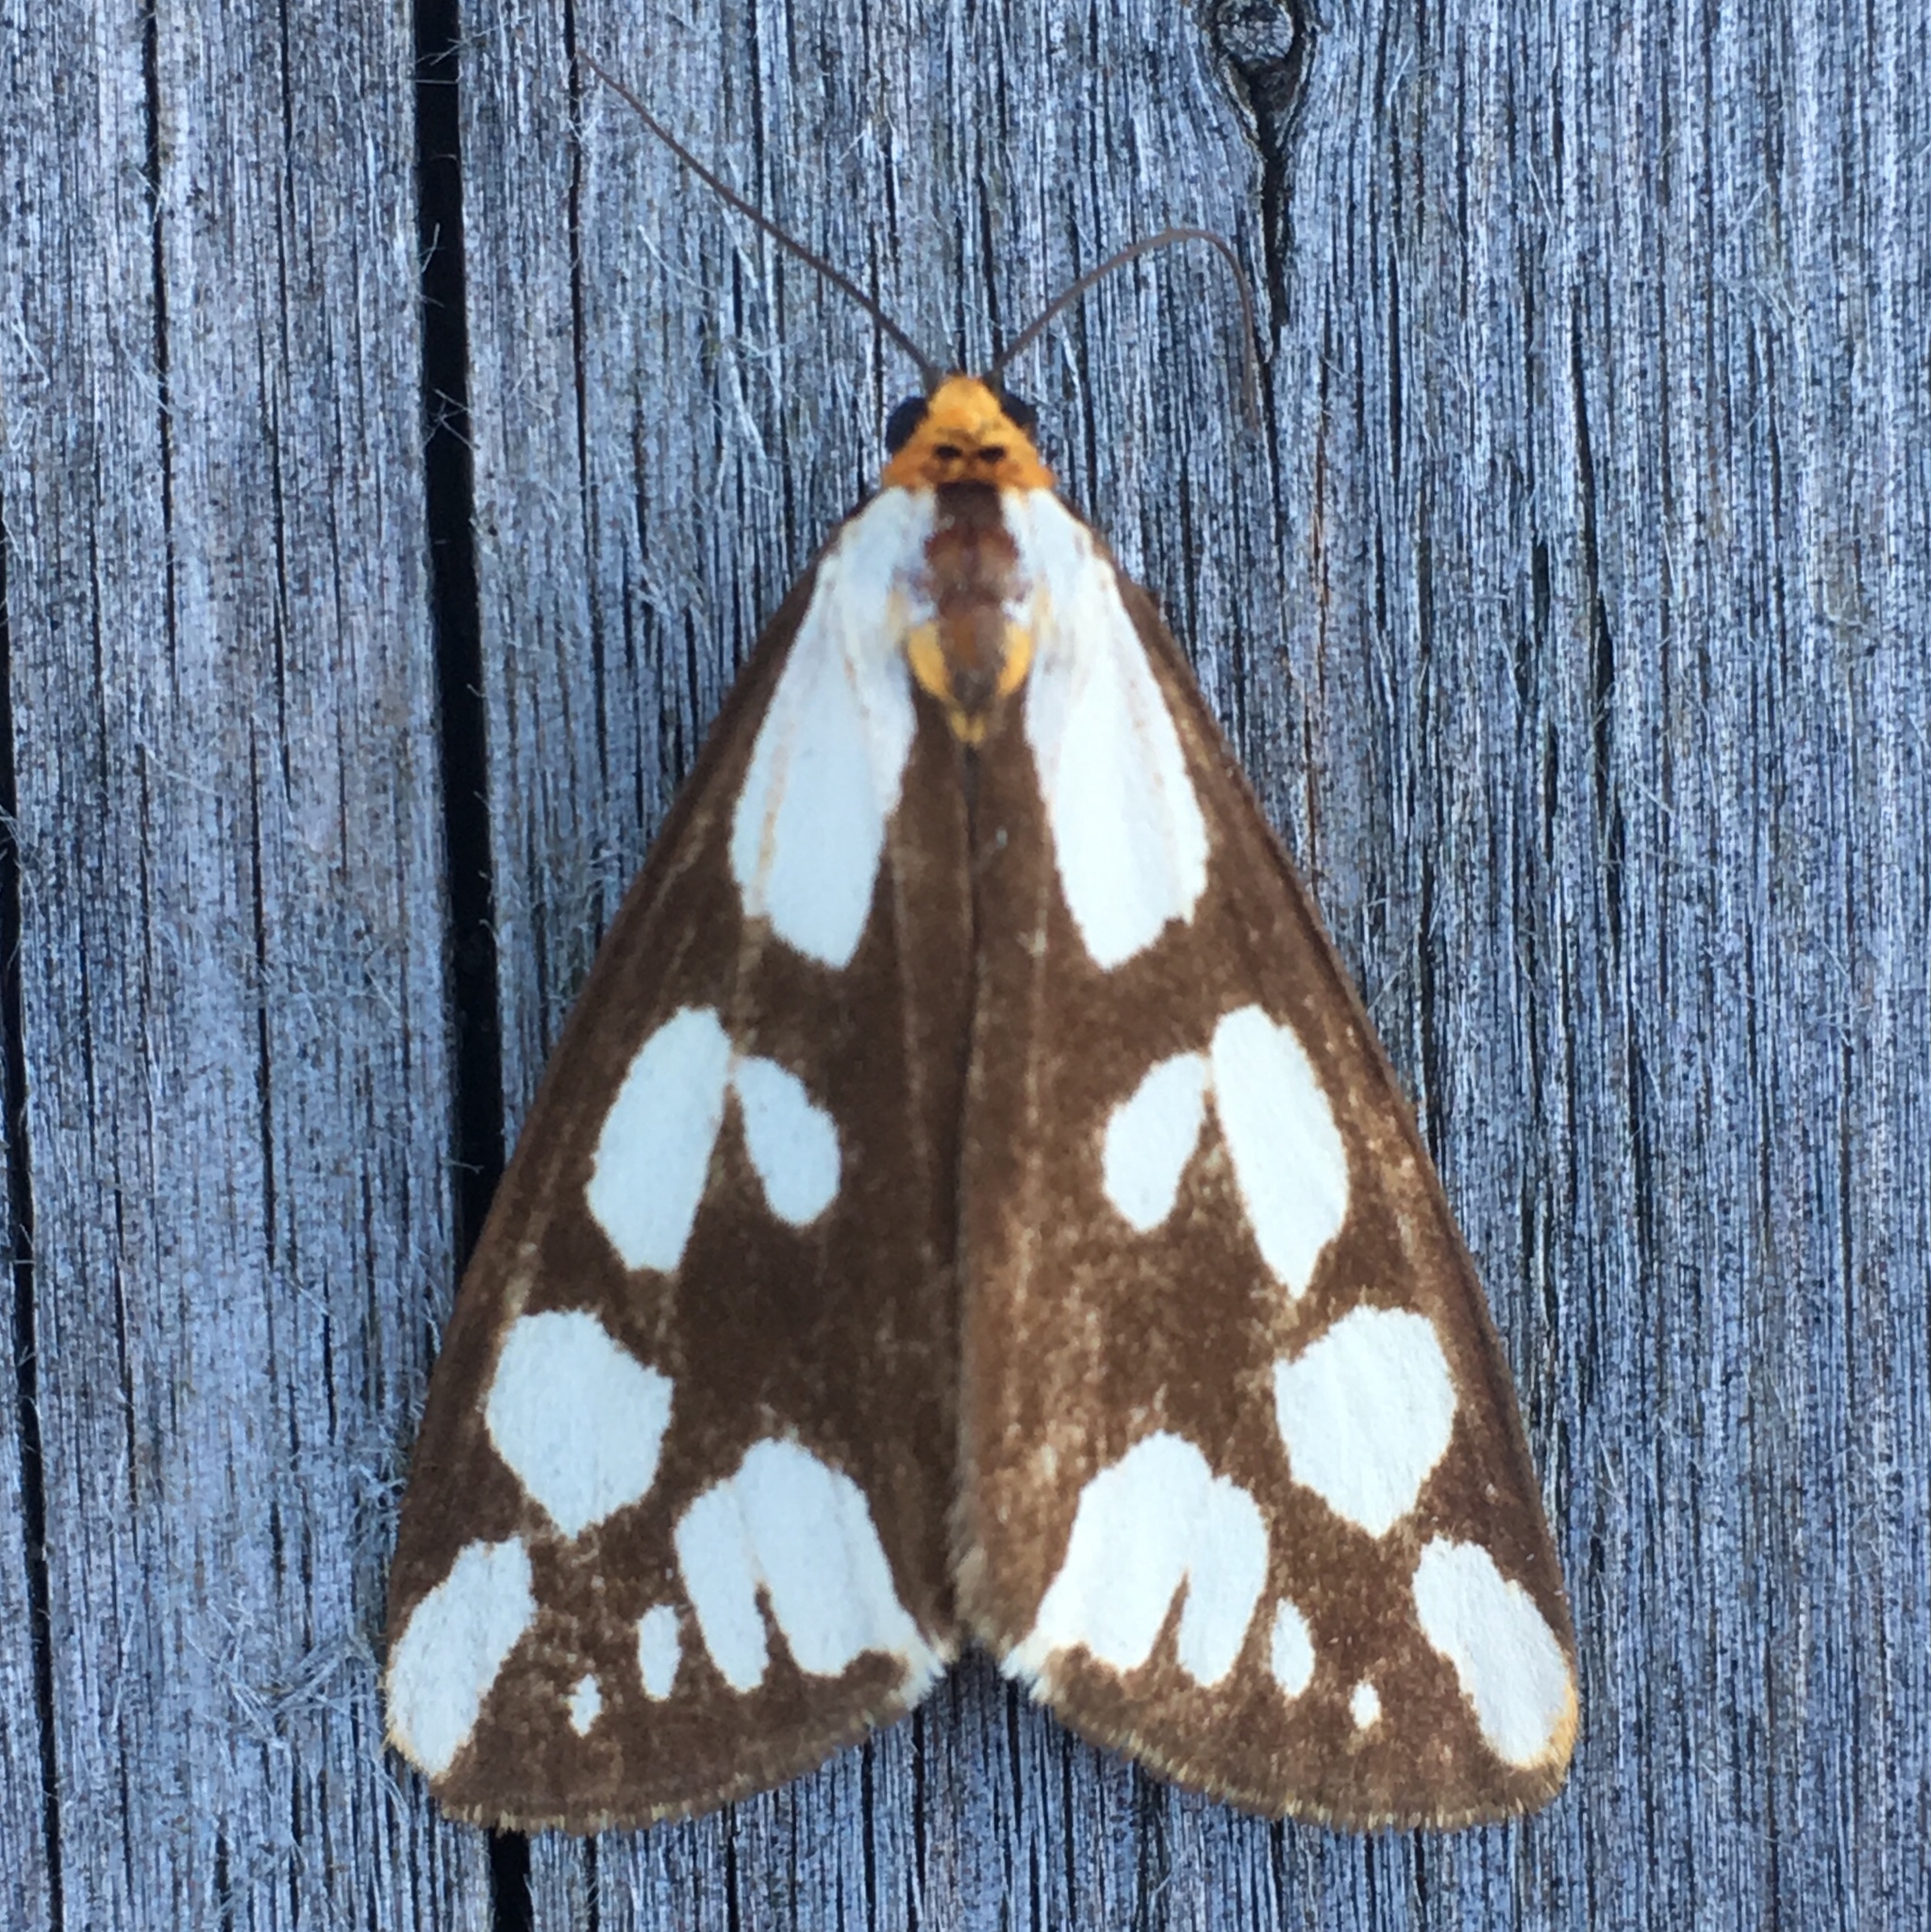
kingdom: Animalia
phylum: Arthropoda
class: Insecta
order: Lepidoptera
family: Erebidae
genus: Haploa
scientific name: Haploa confusa
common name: Confused haploa moth
